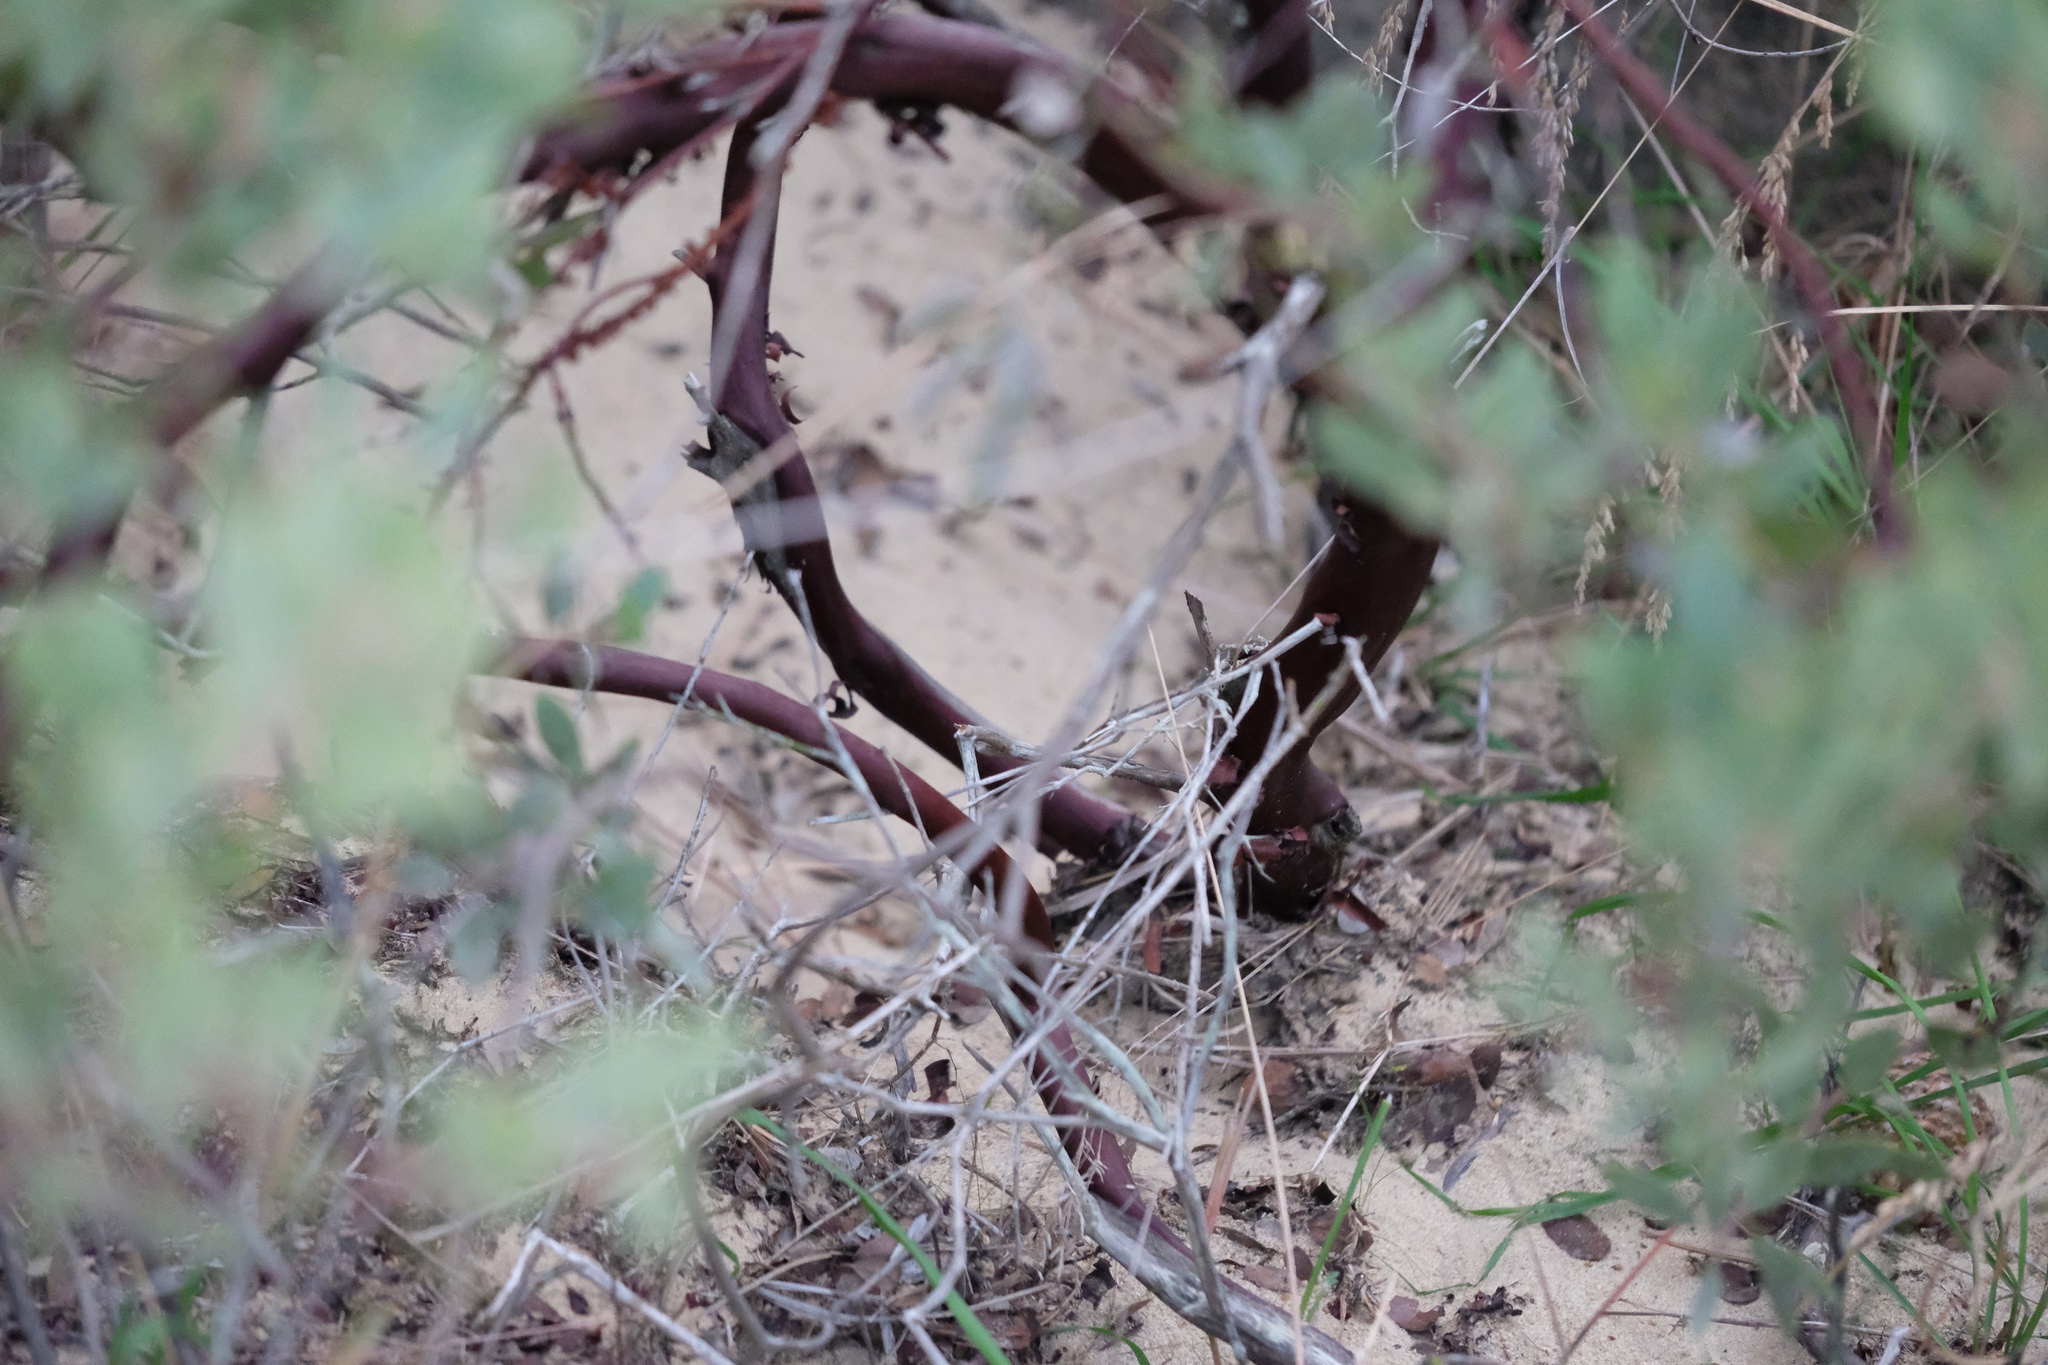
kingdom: Plantae
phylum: Tracheophyta
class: Magnoliopsida
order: Ericales
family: Ericaceae
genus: Arctostaphylos
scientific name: Arctostaphylos glandulosa
